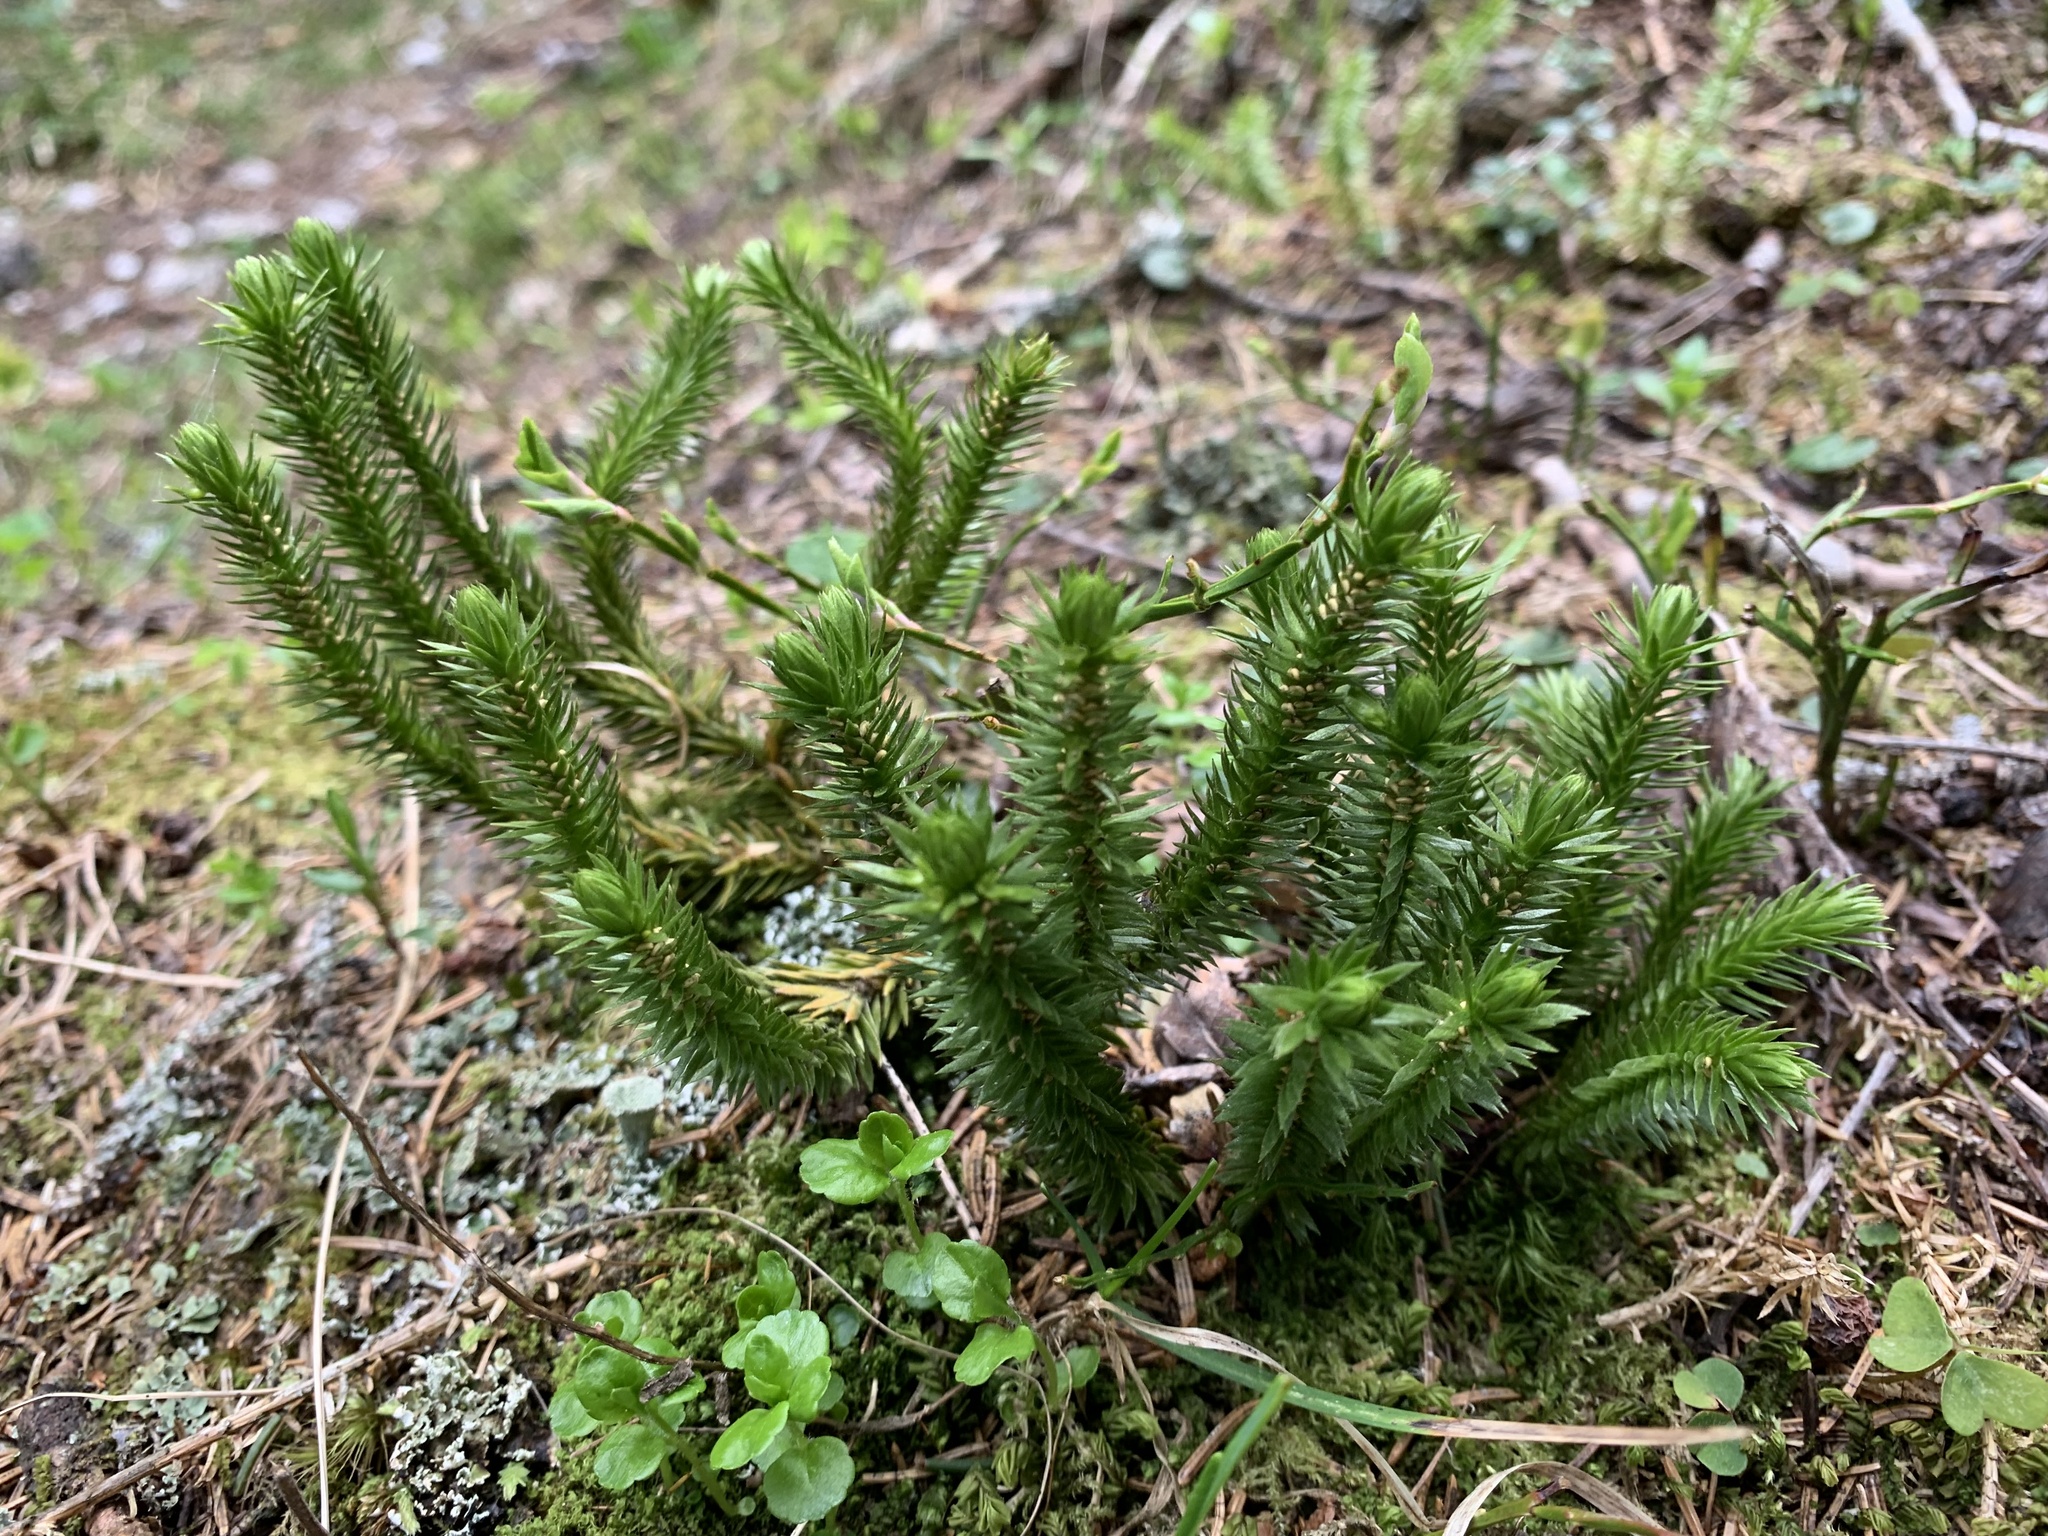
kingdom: Plantae
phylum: Tracheophyta
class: Lycopodiopsida
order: Lycopodiales
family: Lycopodiaceae
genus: Huperzia
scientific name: Huperzia selago
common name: Northern firmoss
